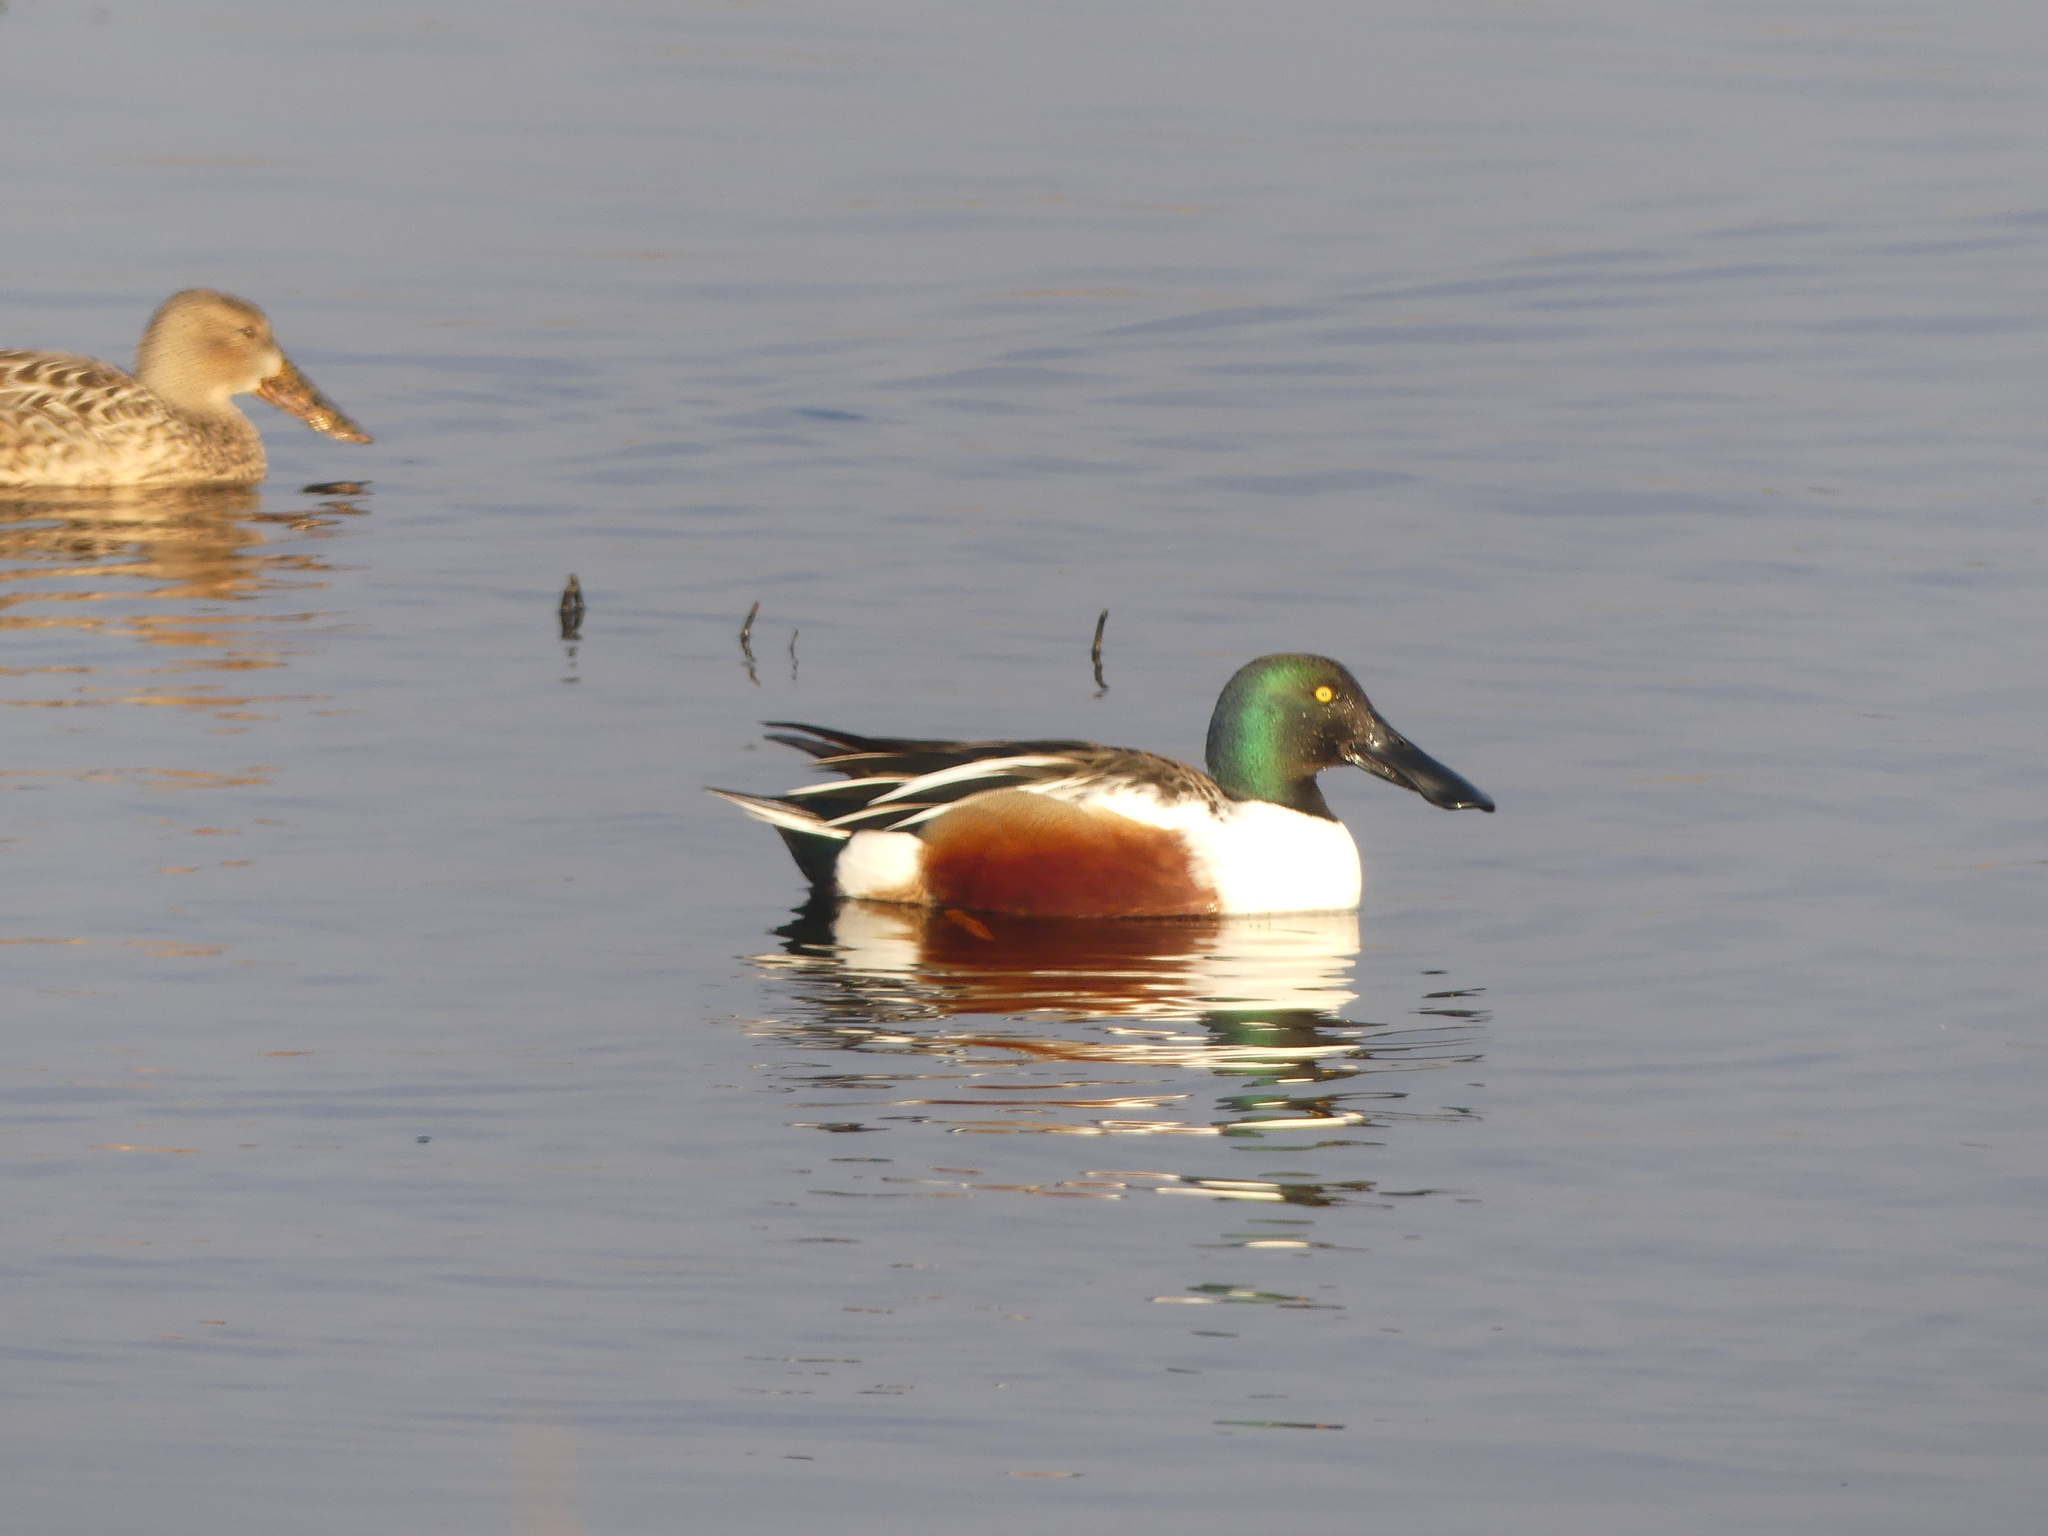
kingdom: Animalia
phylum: Chordata
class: Aves
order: Anseriformes
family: Anatidae
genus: Spatula
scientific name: Spatula clypeata
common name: Northern shoveler
